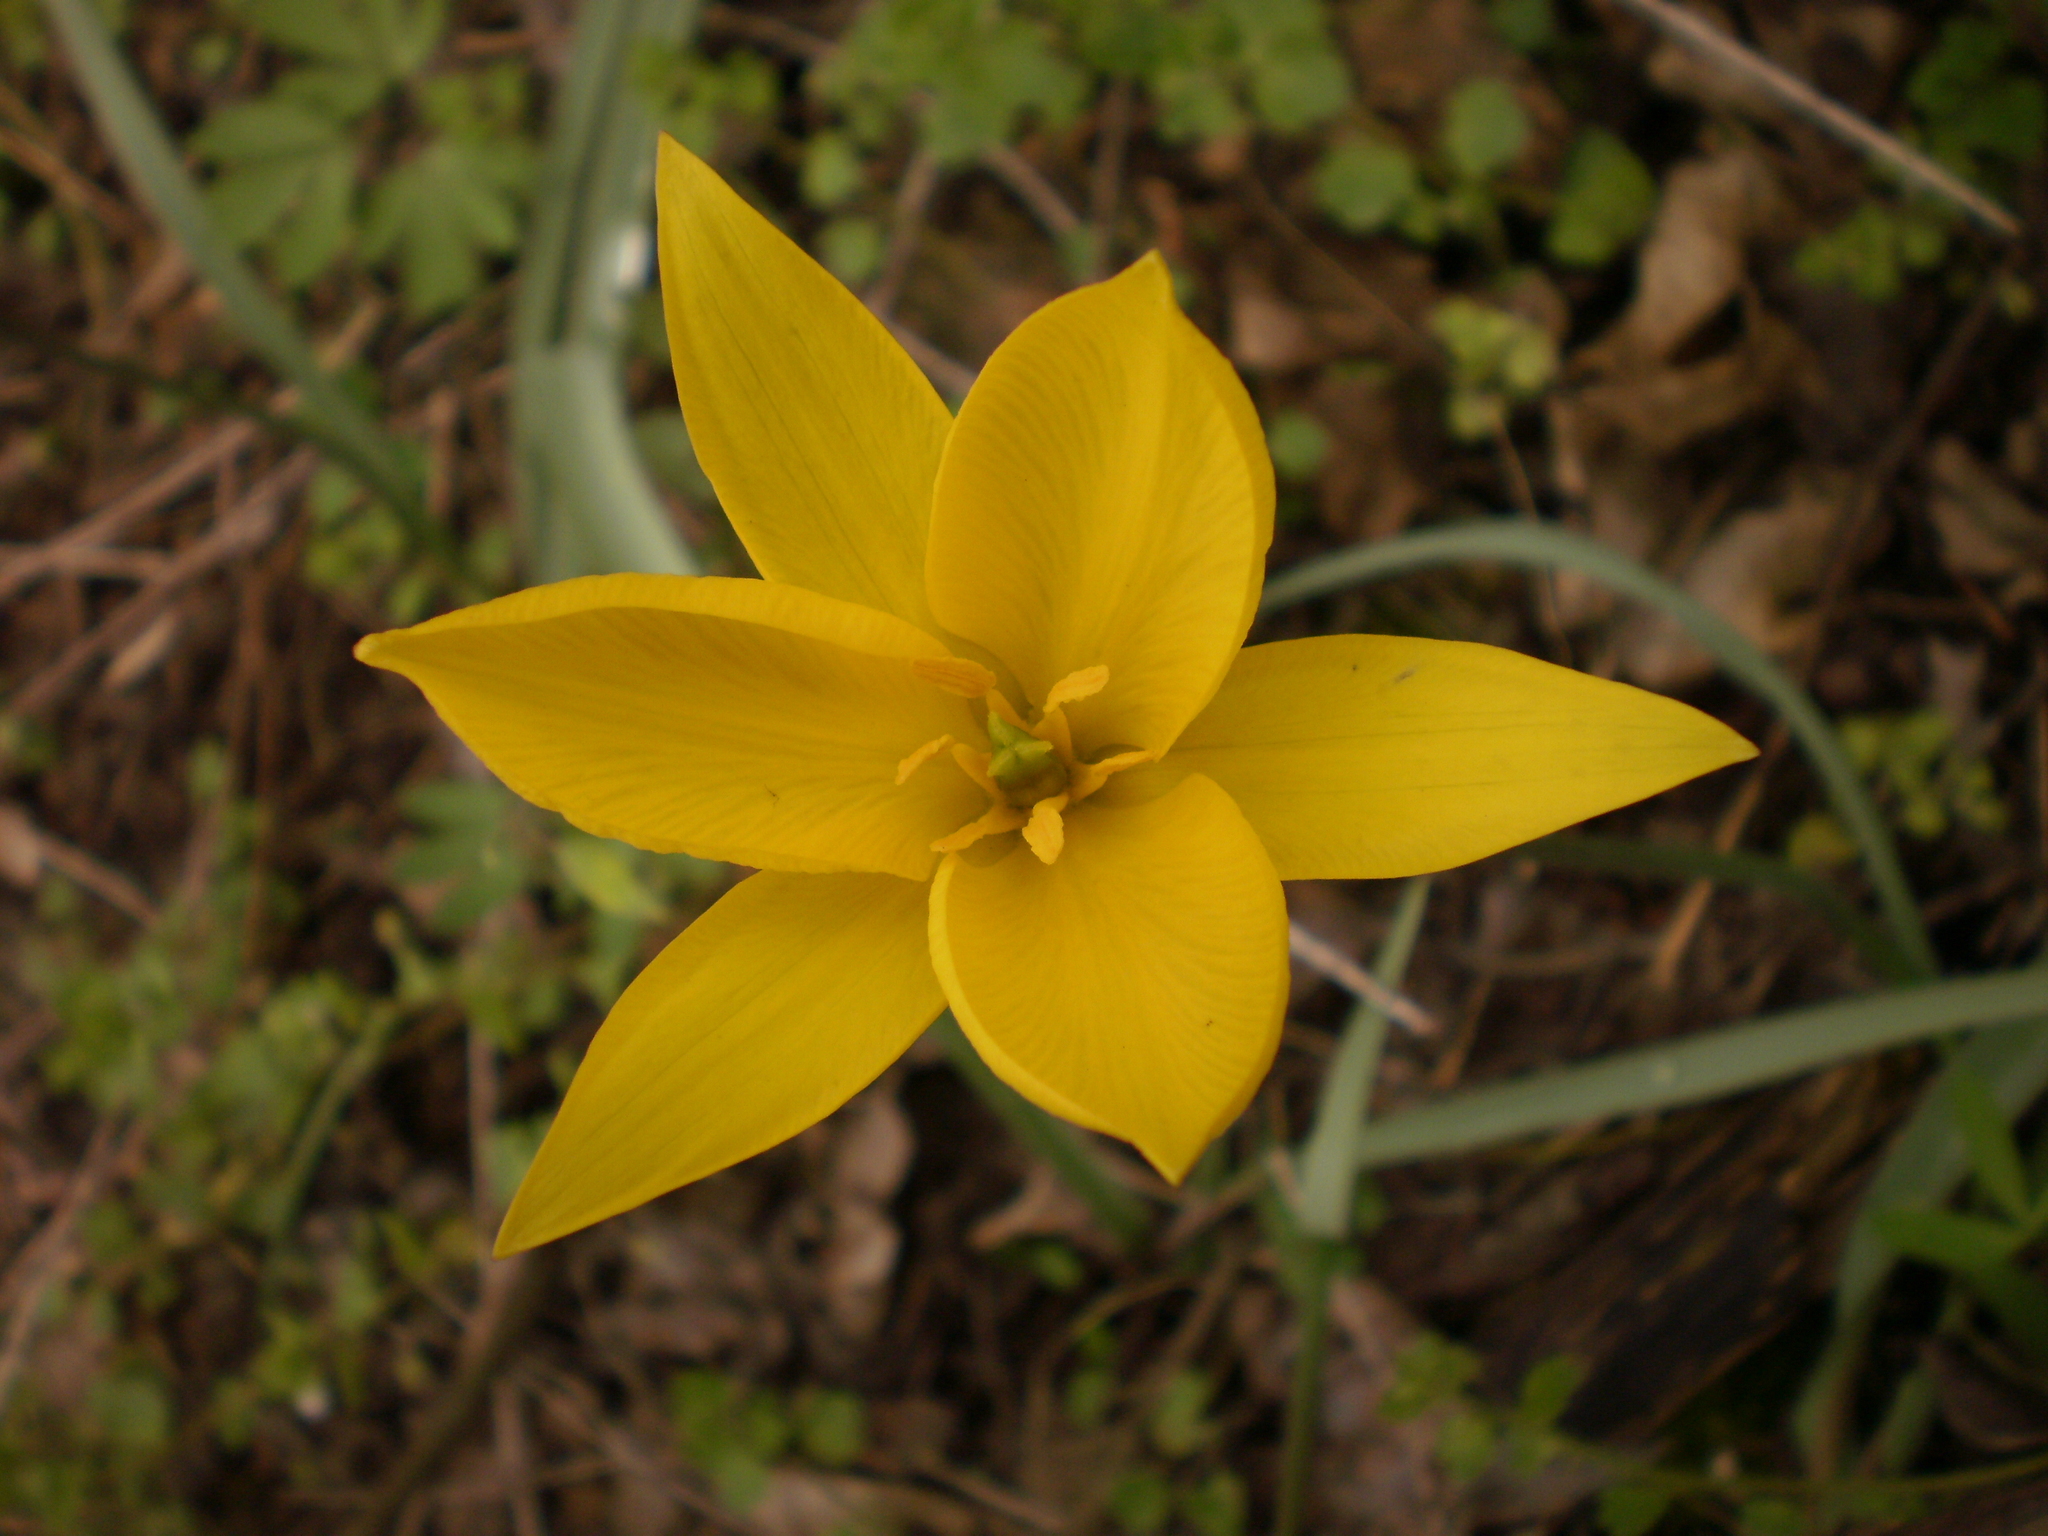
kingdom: Plantae
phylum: Tracheophyta
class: Liliopsida
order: Liliales
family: Liliaceae
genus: Tulipa
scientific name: Tulipa sylvestris
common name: Wild tulip
